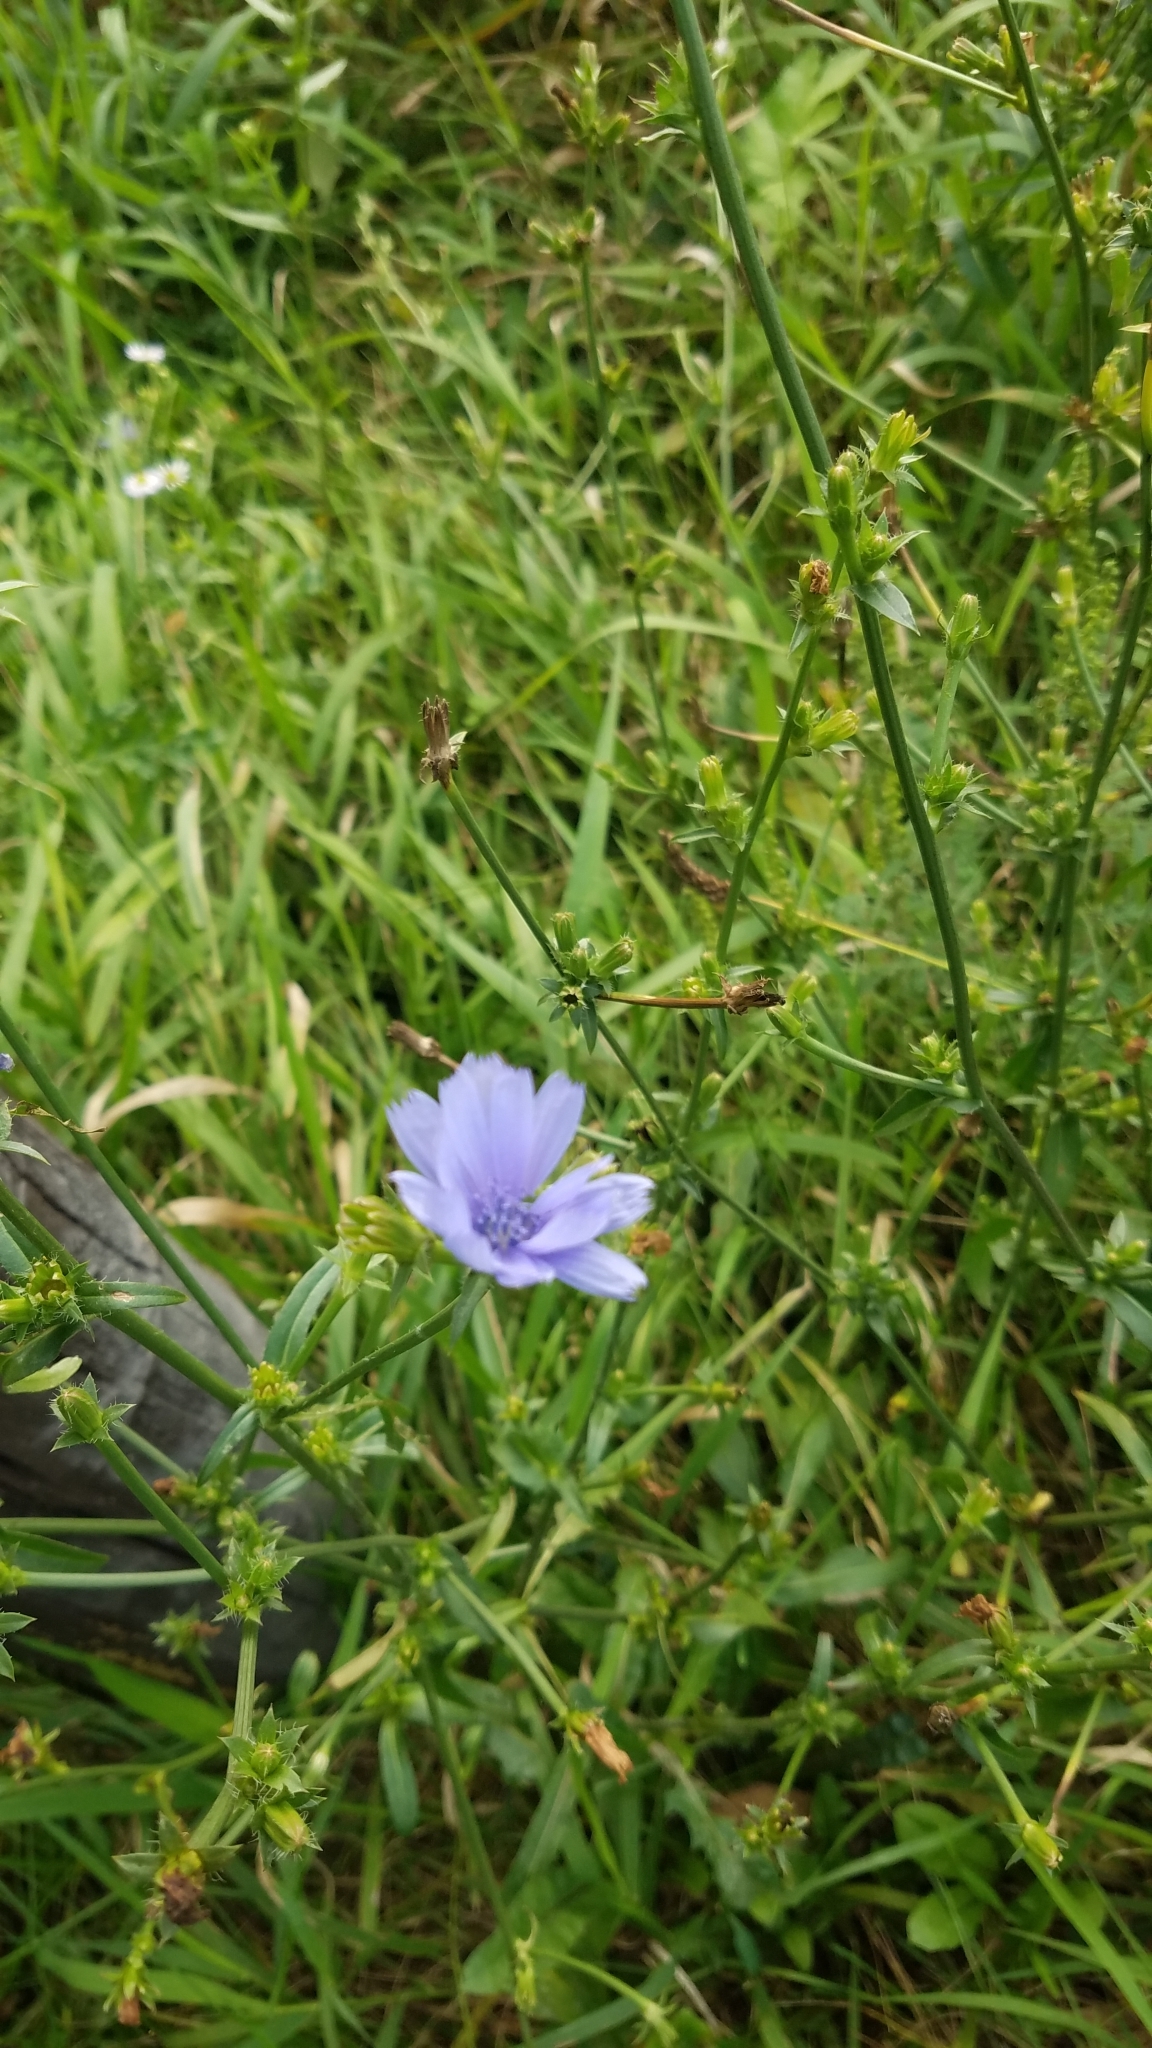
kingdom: Plantae
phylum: Tracheophyta
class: Magnoliopsida
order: Asterales
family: Asteraceae
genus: Cichorium
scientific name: Cichorium intybus
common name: Chicory
